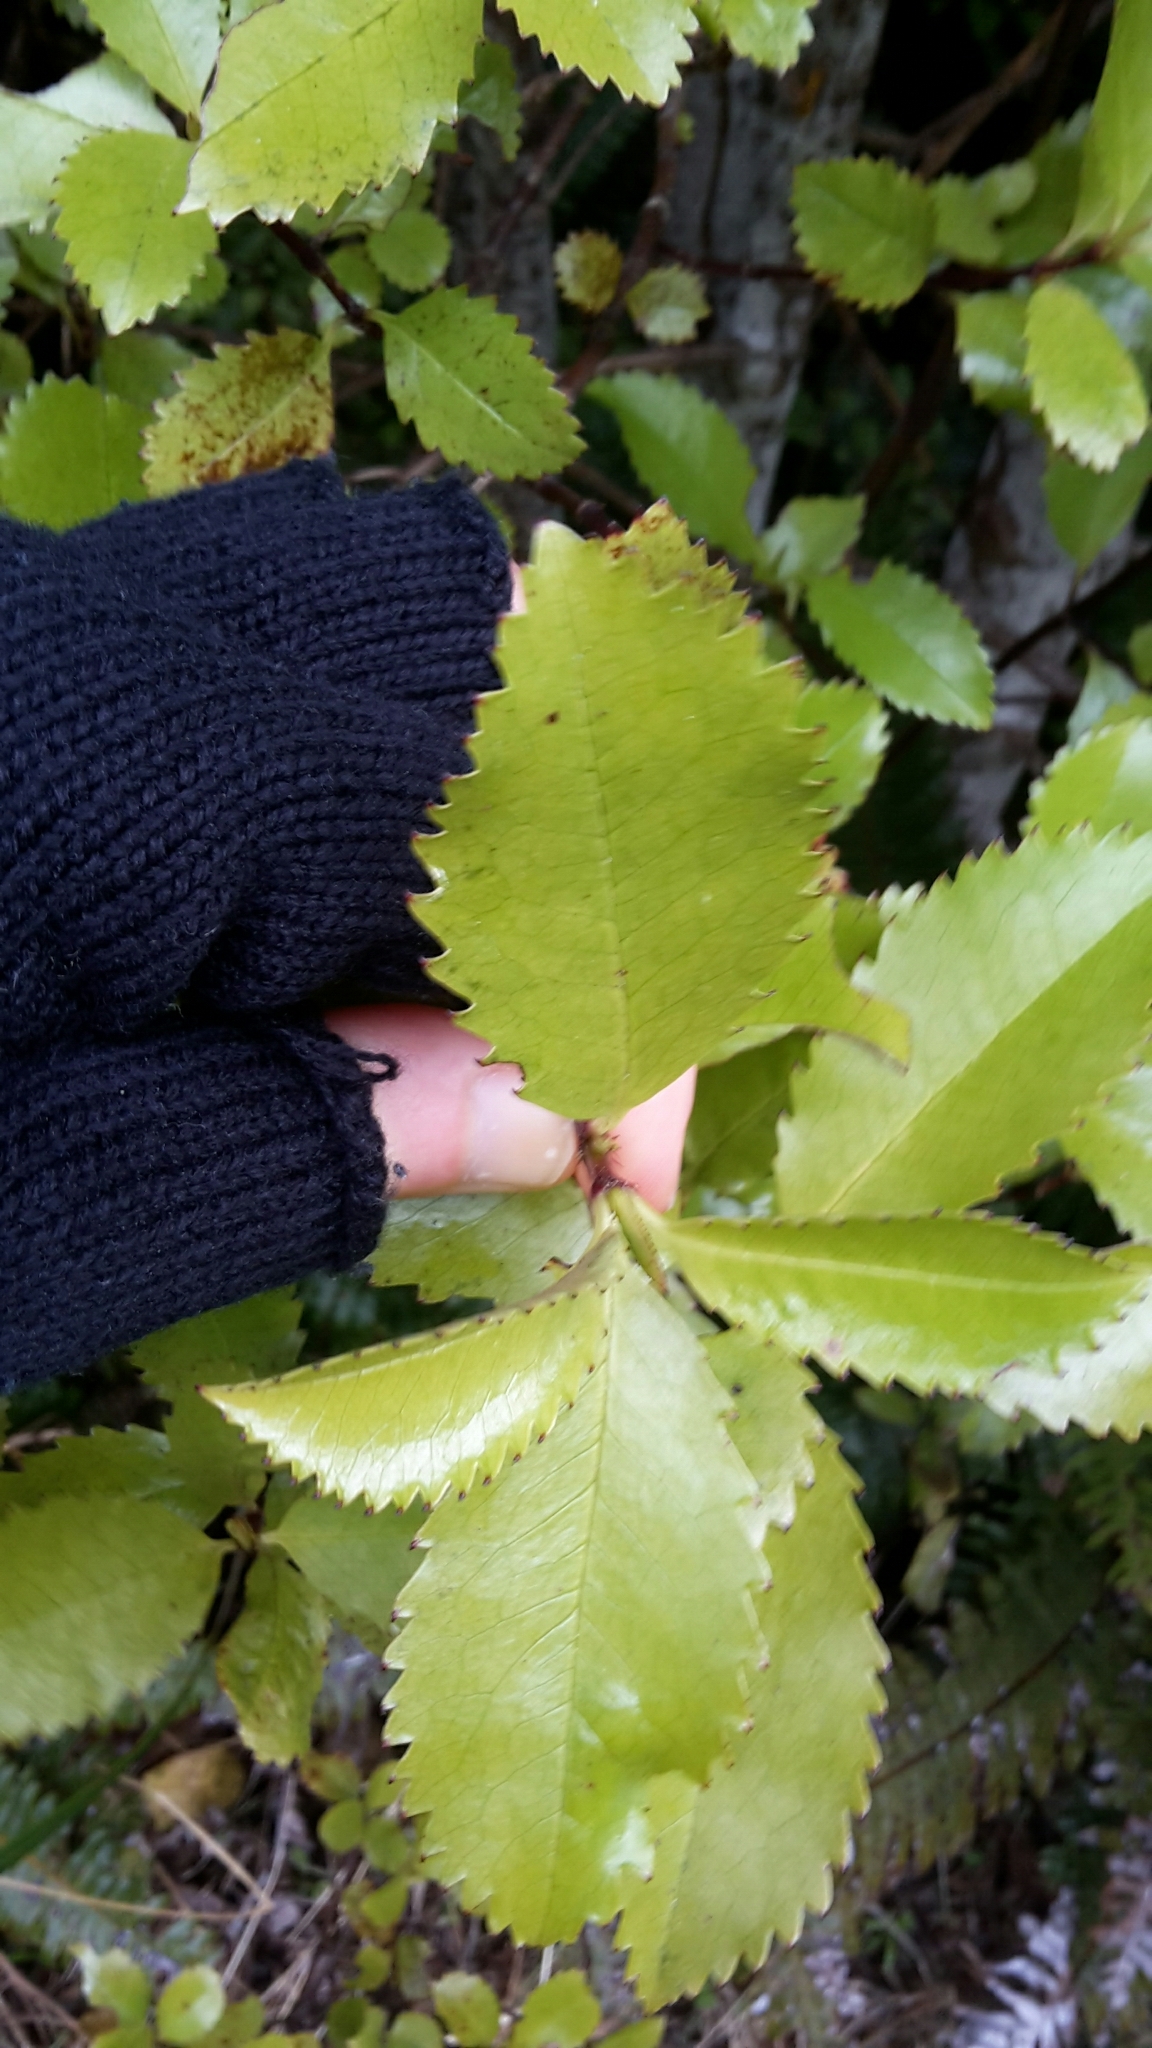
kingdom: Plantae
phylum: Tracheophyta
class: Magnoliopsida
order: Chloranthales
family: Chloranthaceae
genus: Ascarina
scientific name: Ascarina lucida
